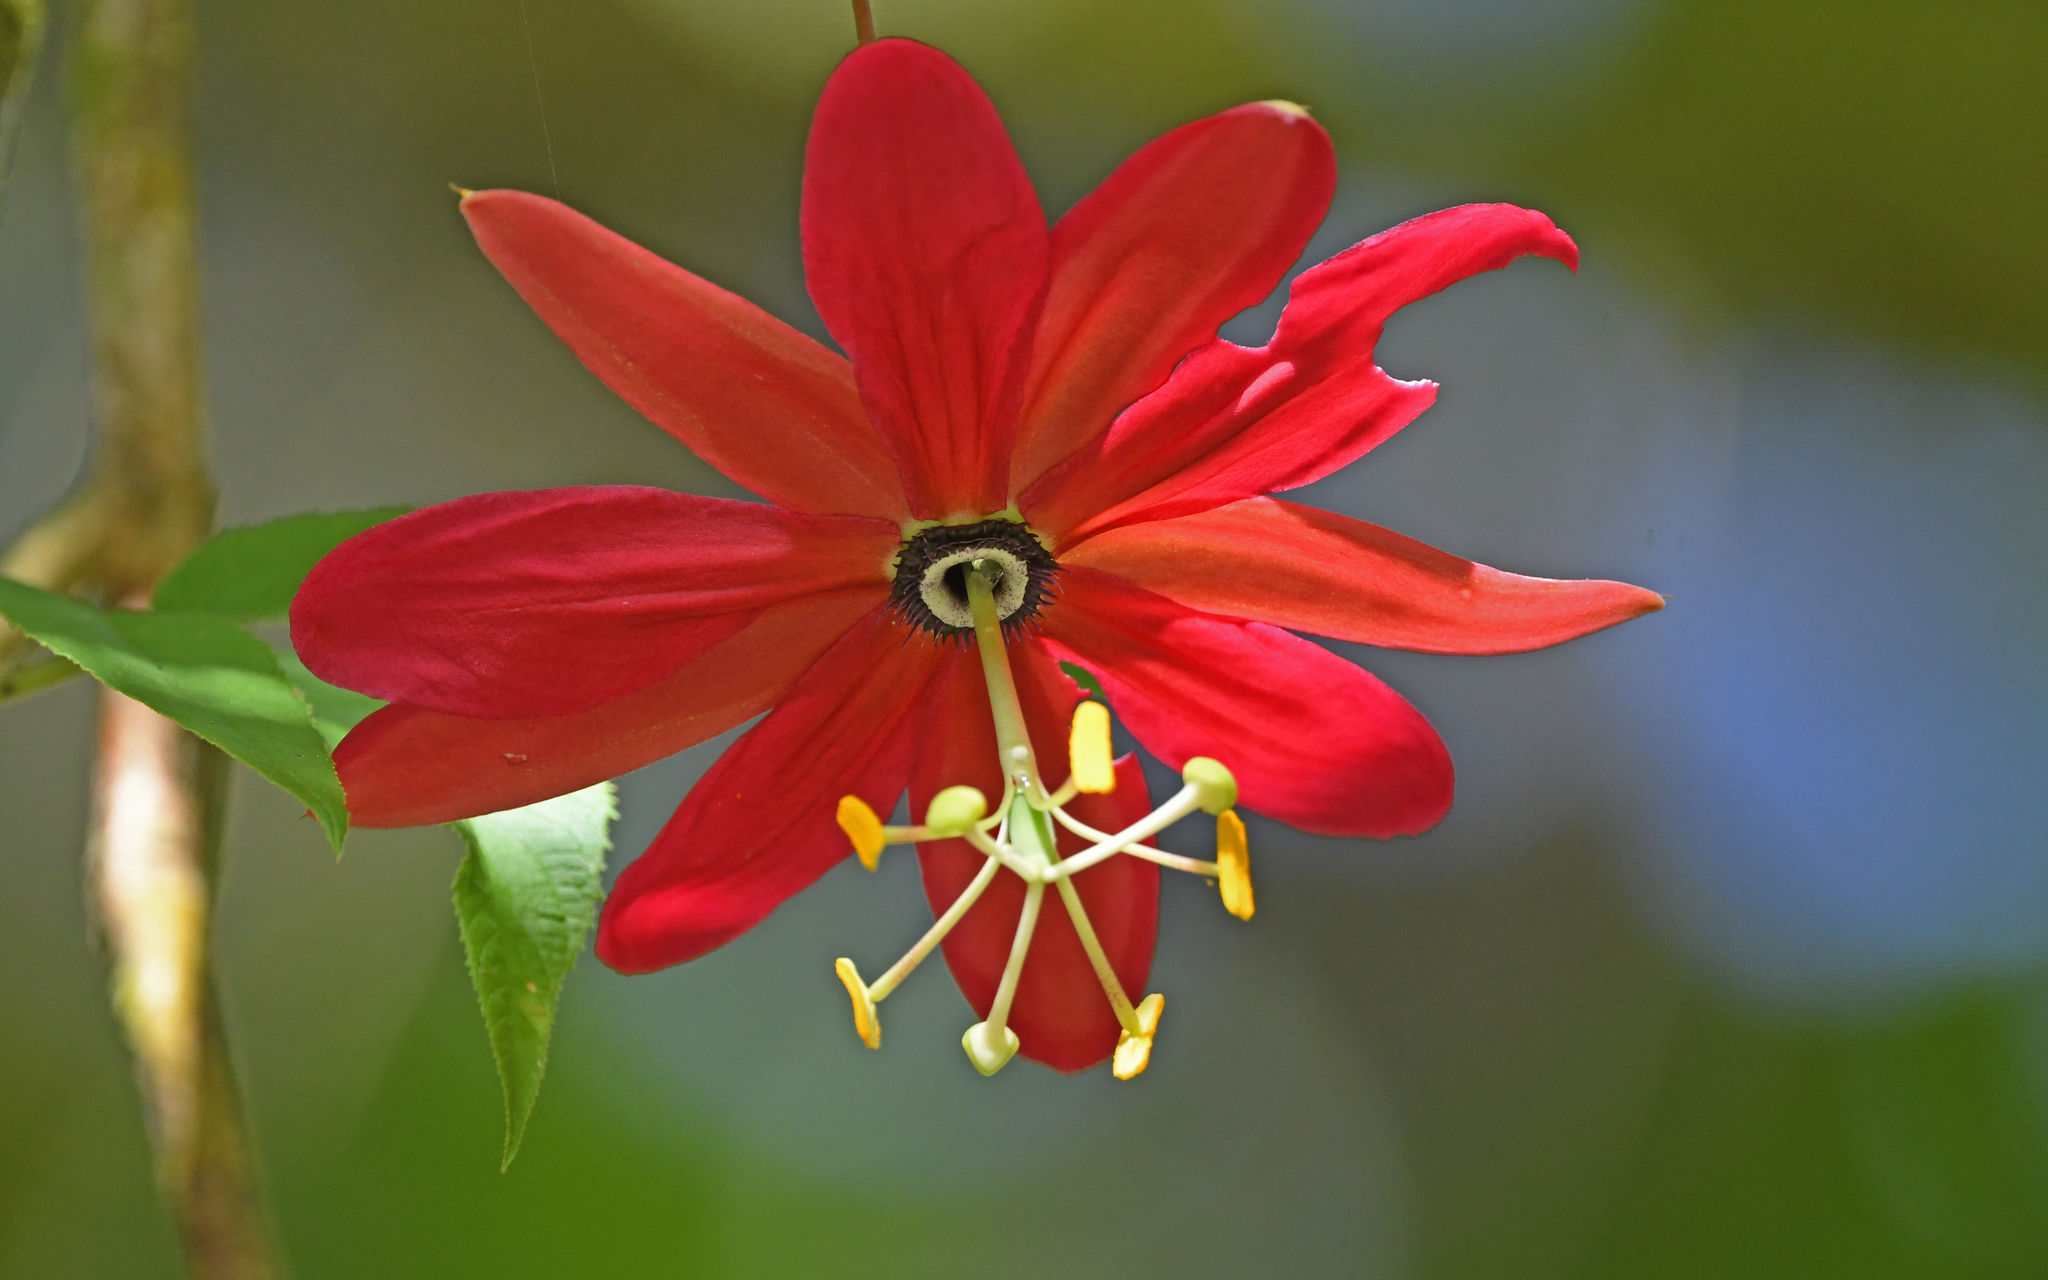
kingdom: Plantae
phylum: Tracheophyta
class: Magnoliopsida
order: Malpighiales
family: Passifloraceae
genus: Passiflora
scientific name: Passiflora antioquiensis
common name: Banana passionfruit
